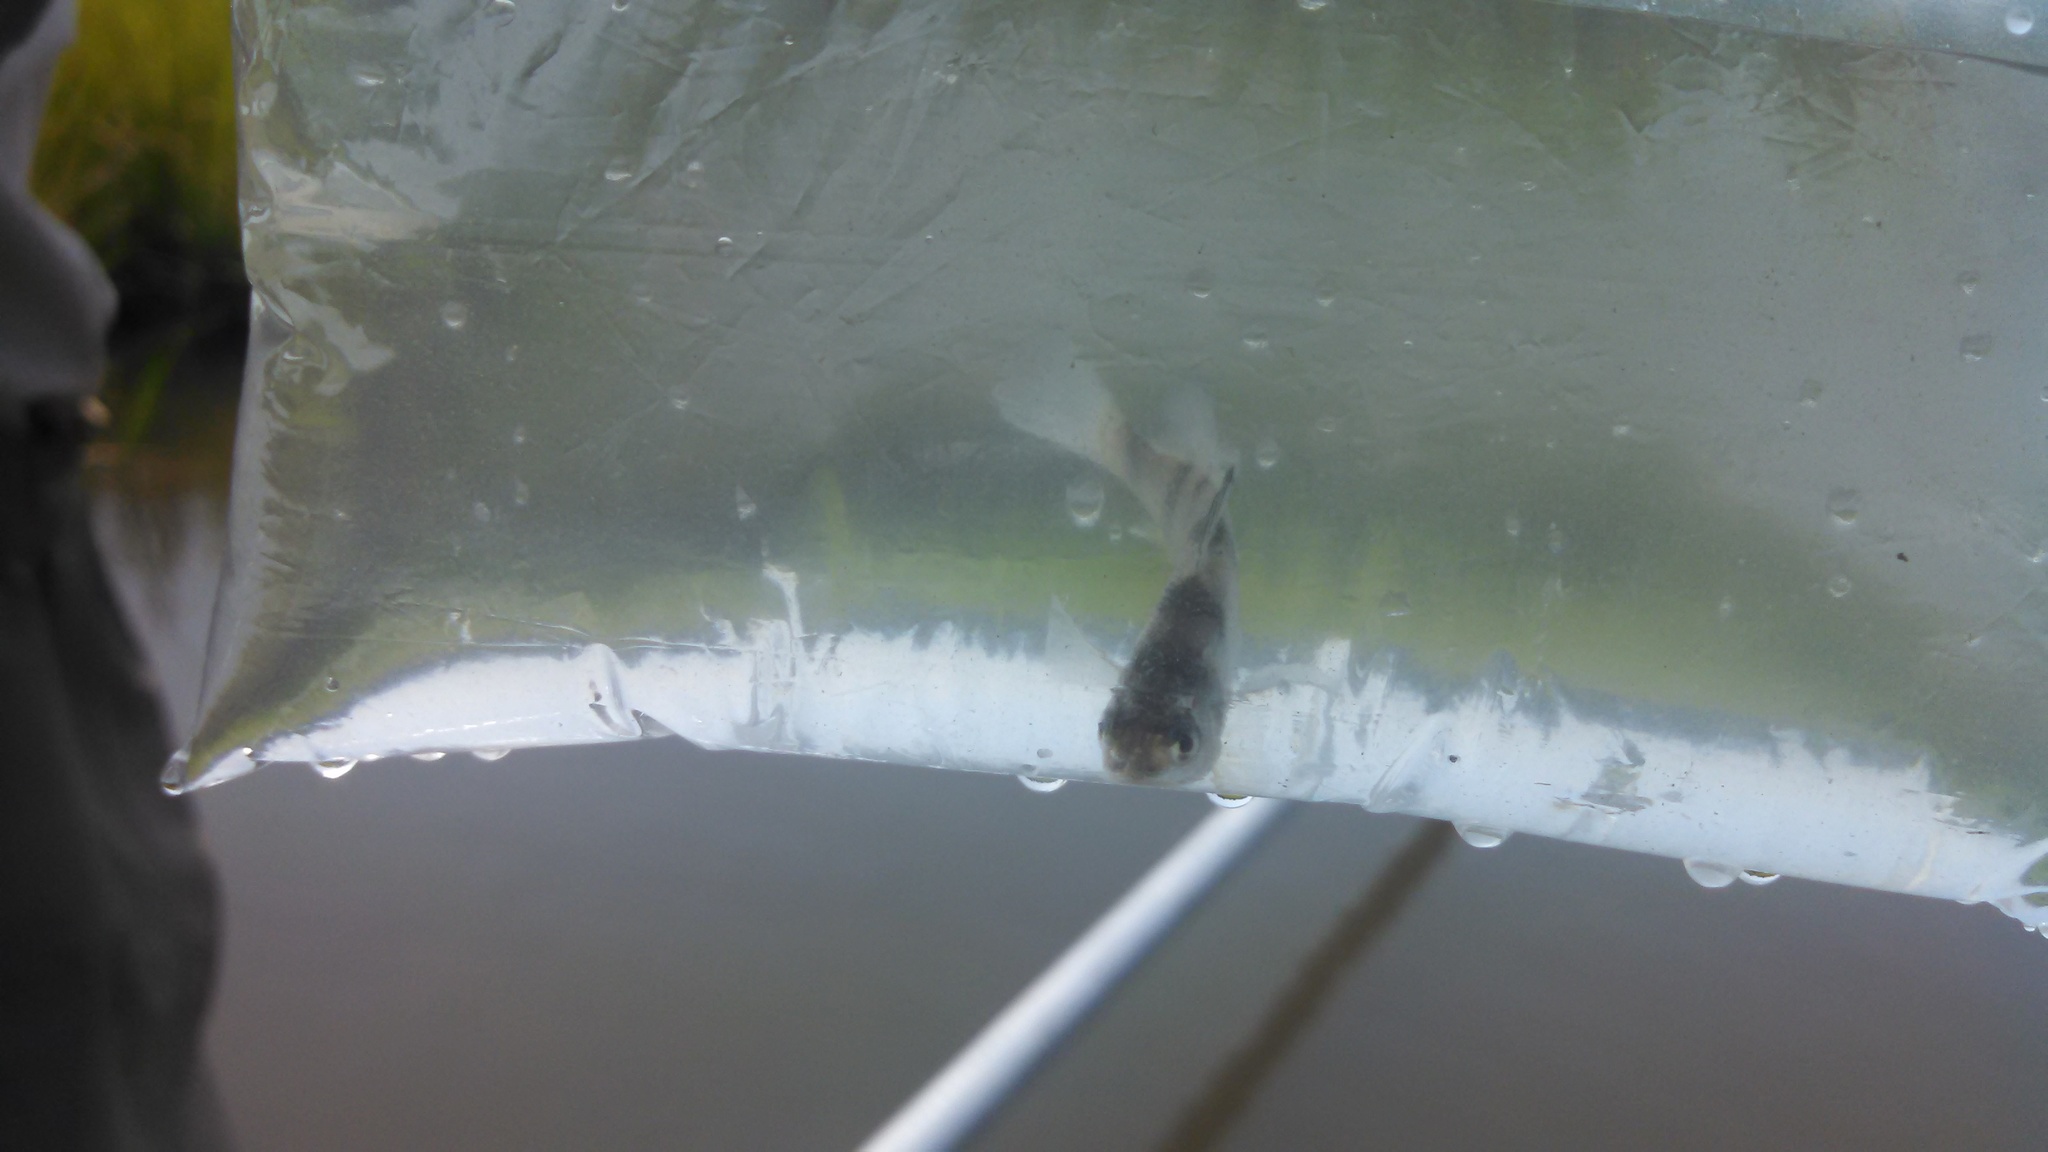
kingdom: Animalia
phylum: Chordata
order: Perciformes
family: Sciaenidae
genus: Pogonias
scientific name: Pogonias cromis
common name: Black drum
